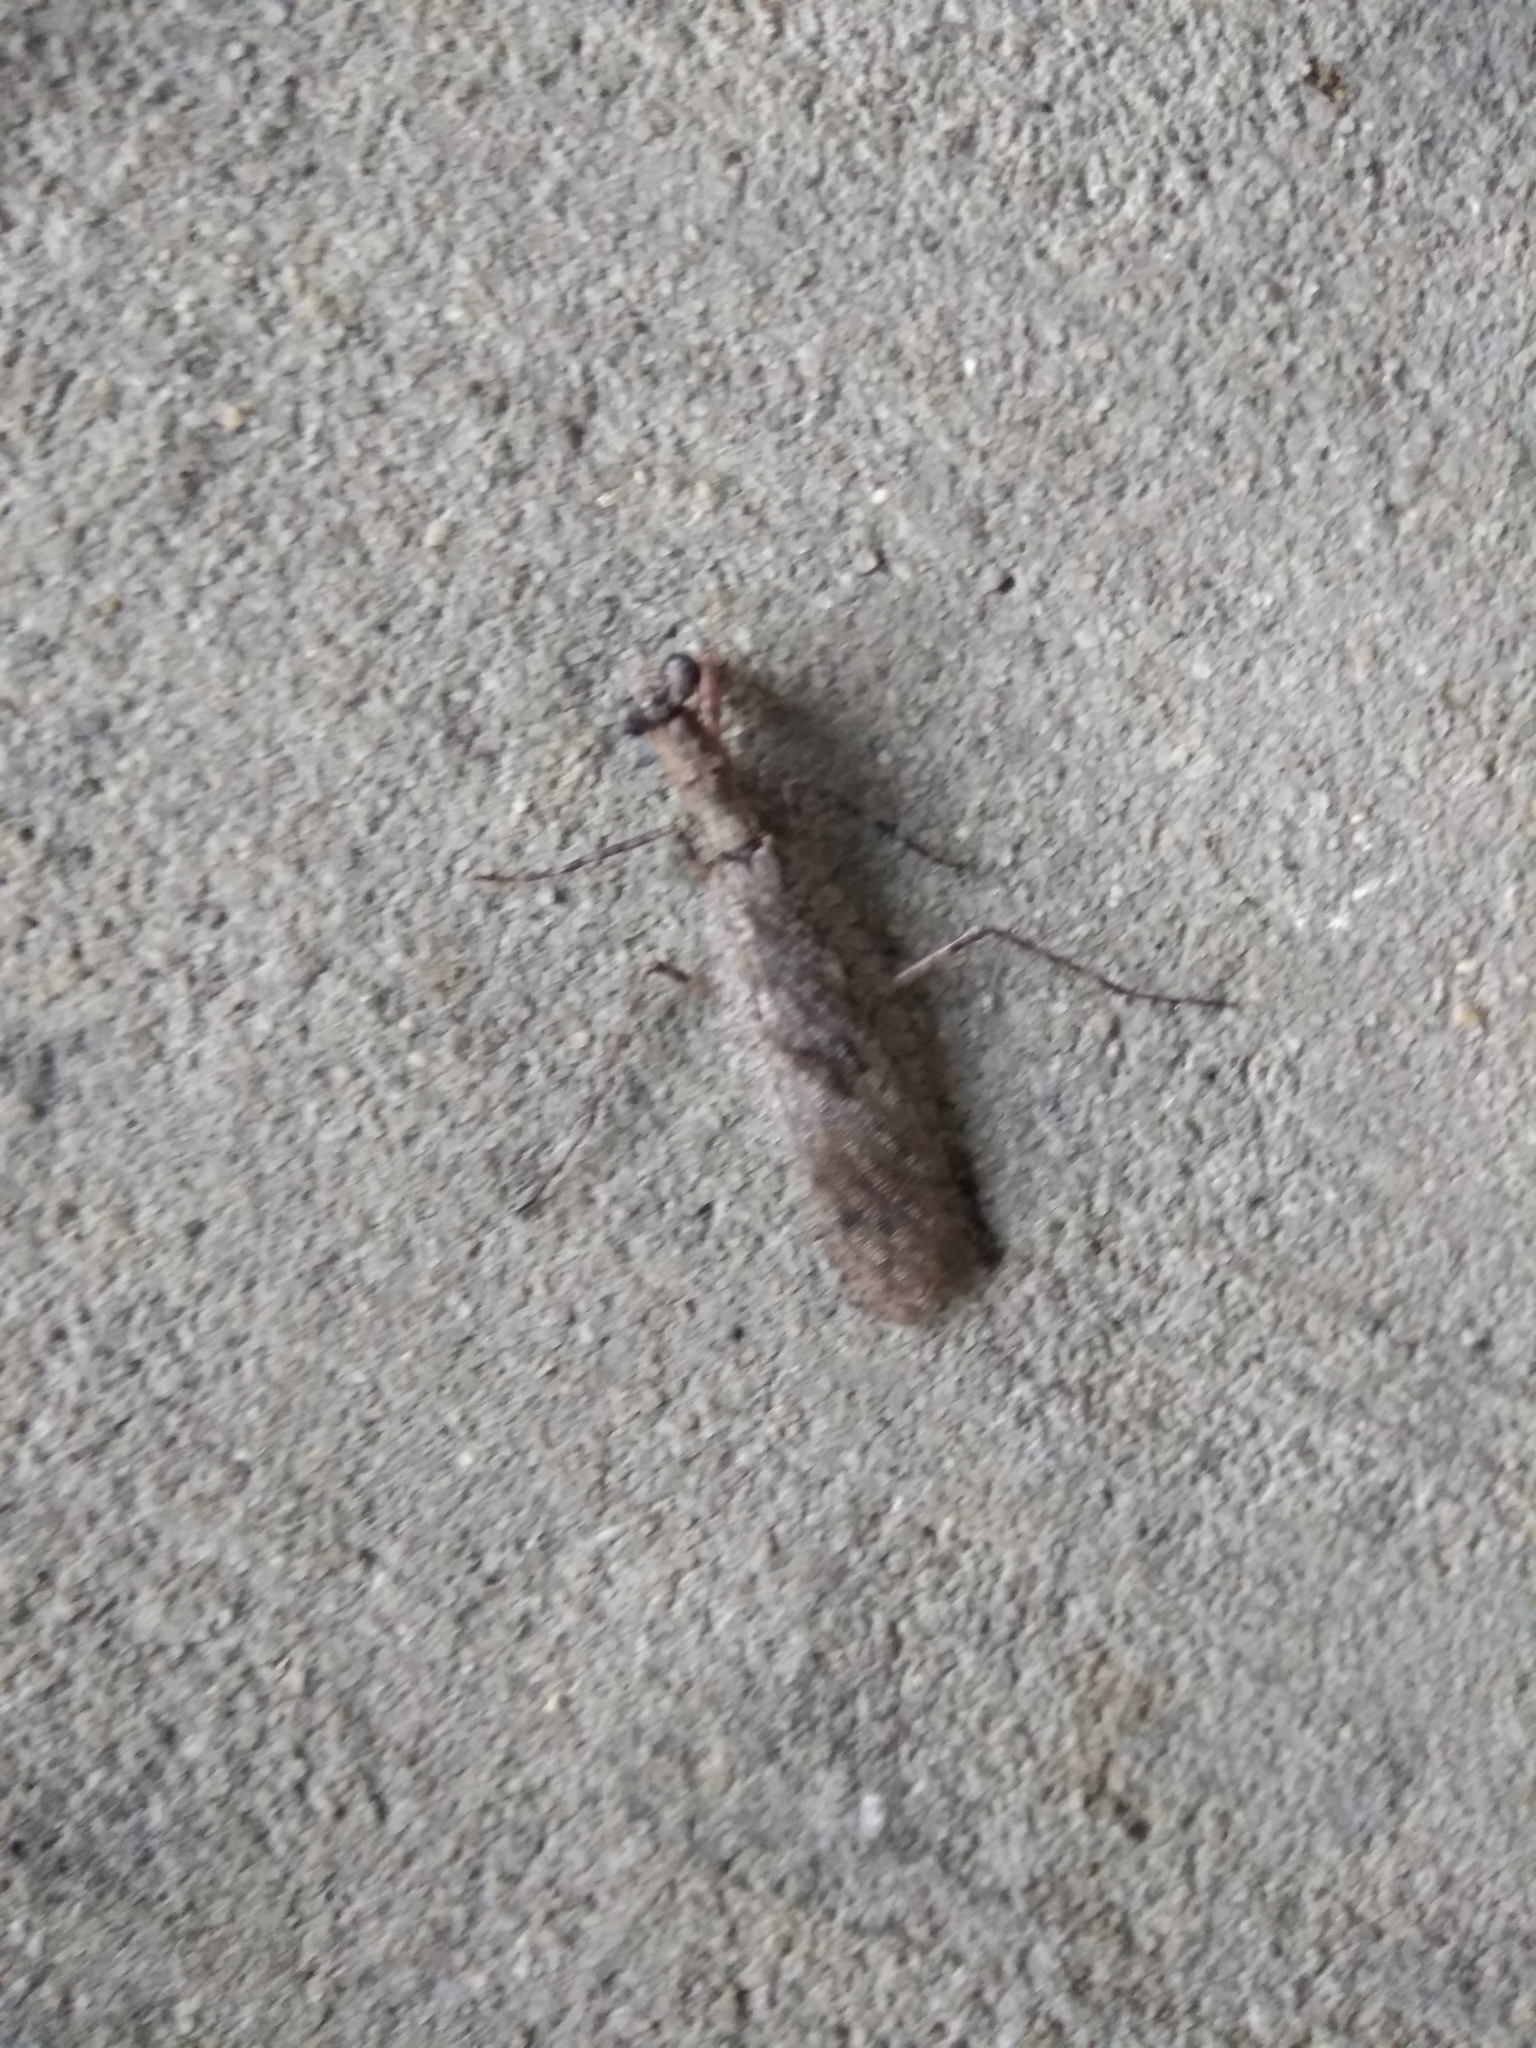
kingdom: Animalia
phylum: Arthropoda
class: Insecta
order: Mantodea
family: Epaphroditidae
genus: Gonatista
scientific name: Gonatista grisea
